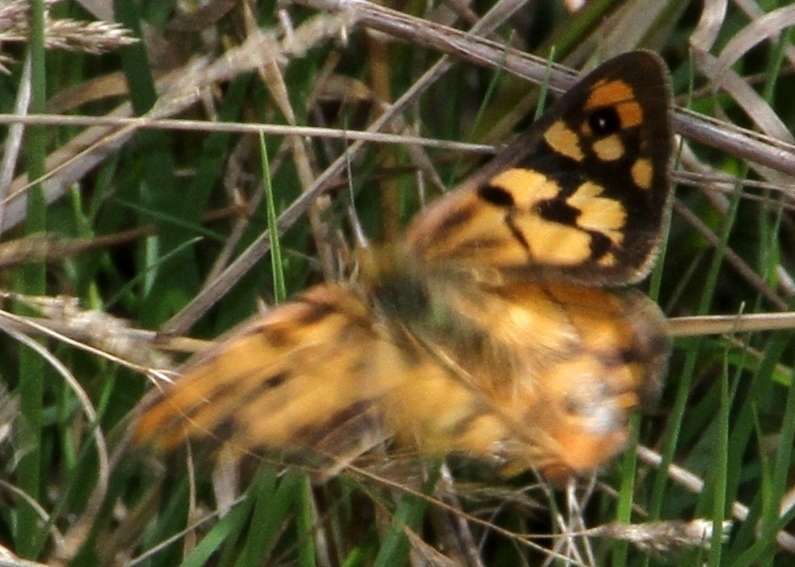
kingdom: Animalia
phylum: Arthropoda
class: Insecta
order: Lepidoptera
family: Nymphalidae
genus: Heteronympha
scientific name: Heteronympha penelope
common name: Shouldered brown
